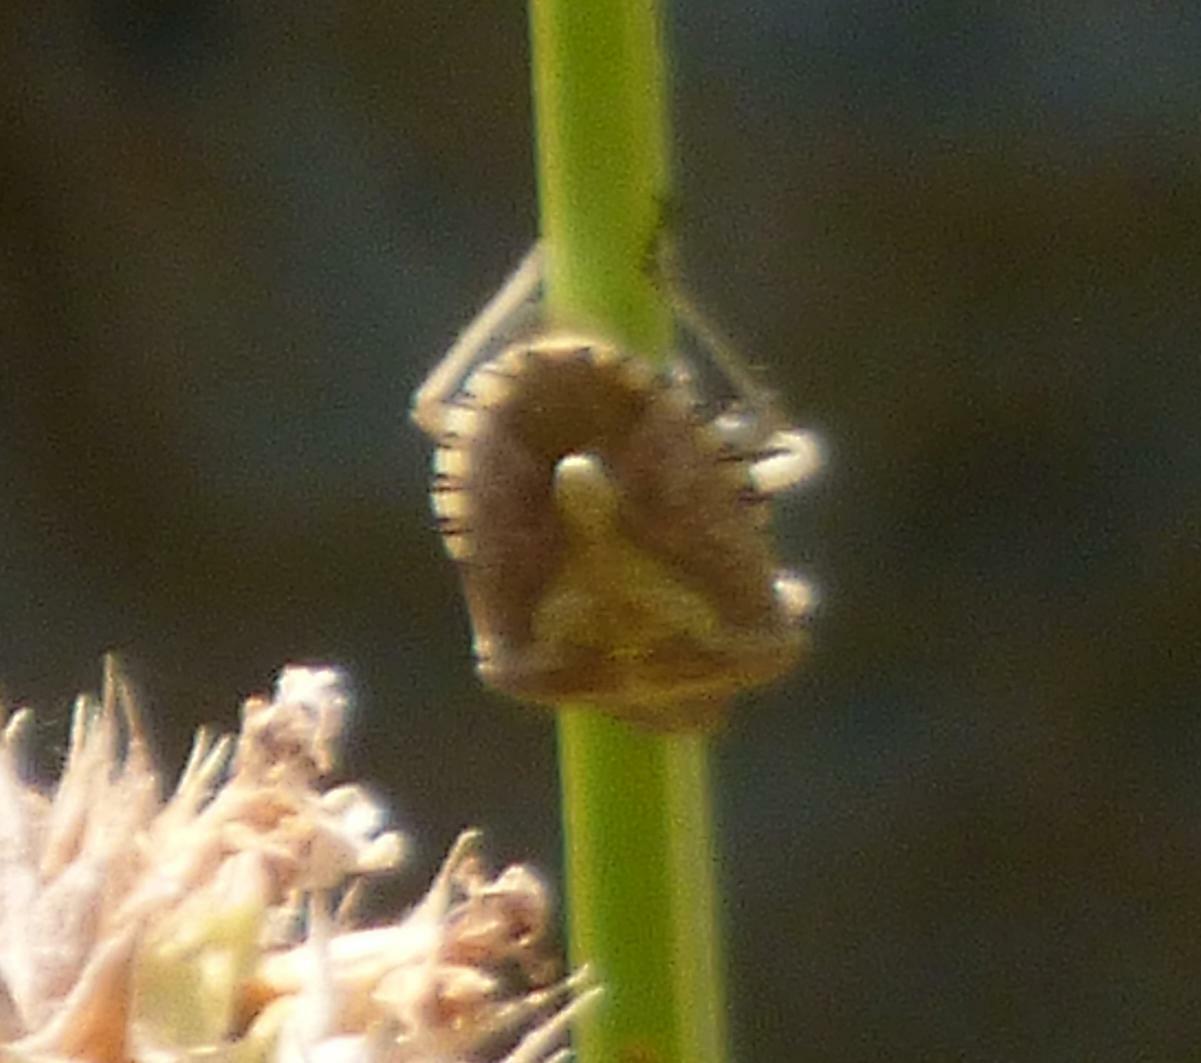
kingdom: Animalia
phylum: Arthropoda
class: Insecta
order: Hemiptera
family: Pentatomidae
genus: Dolycoris
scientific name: Dolycoris baccarum
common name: Sloe bug
